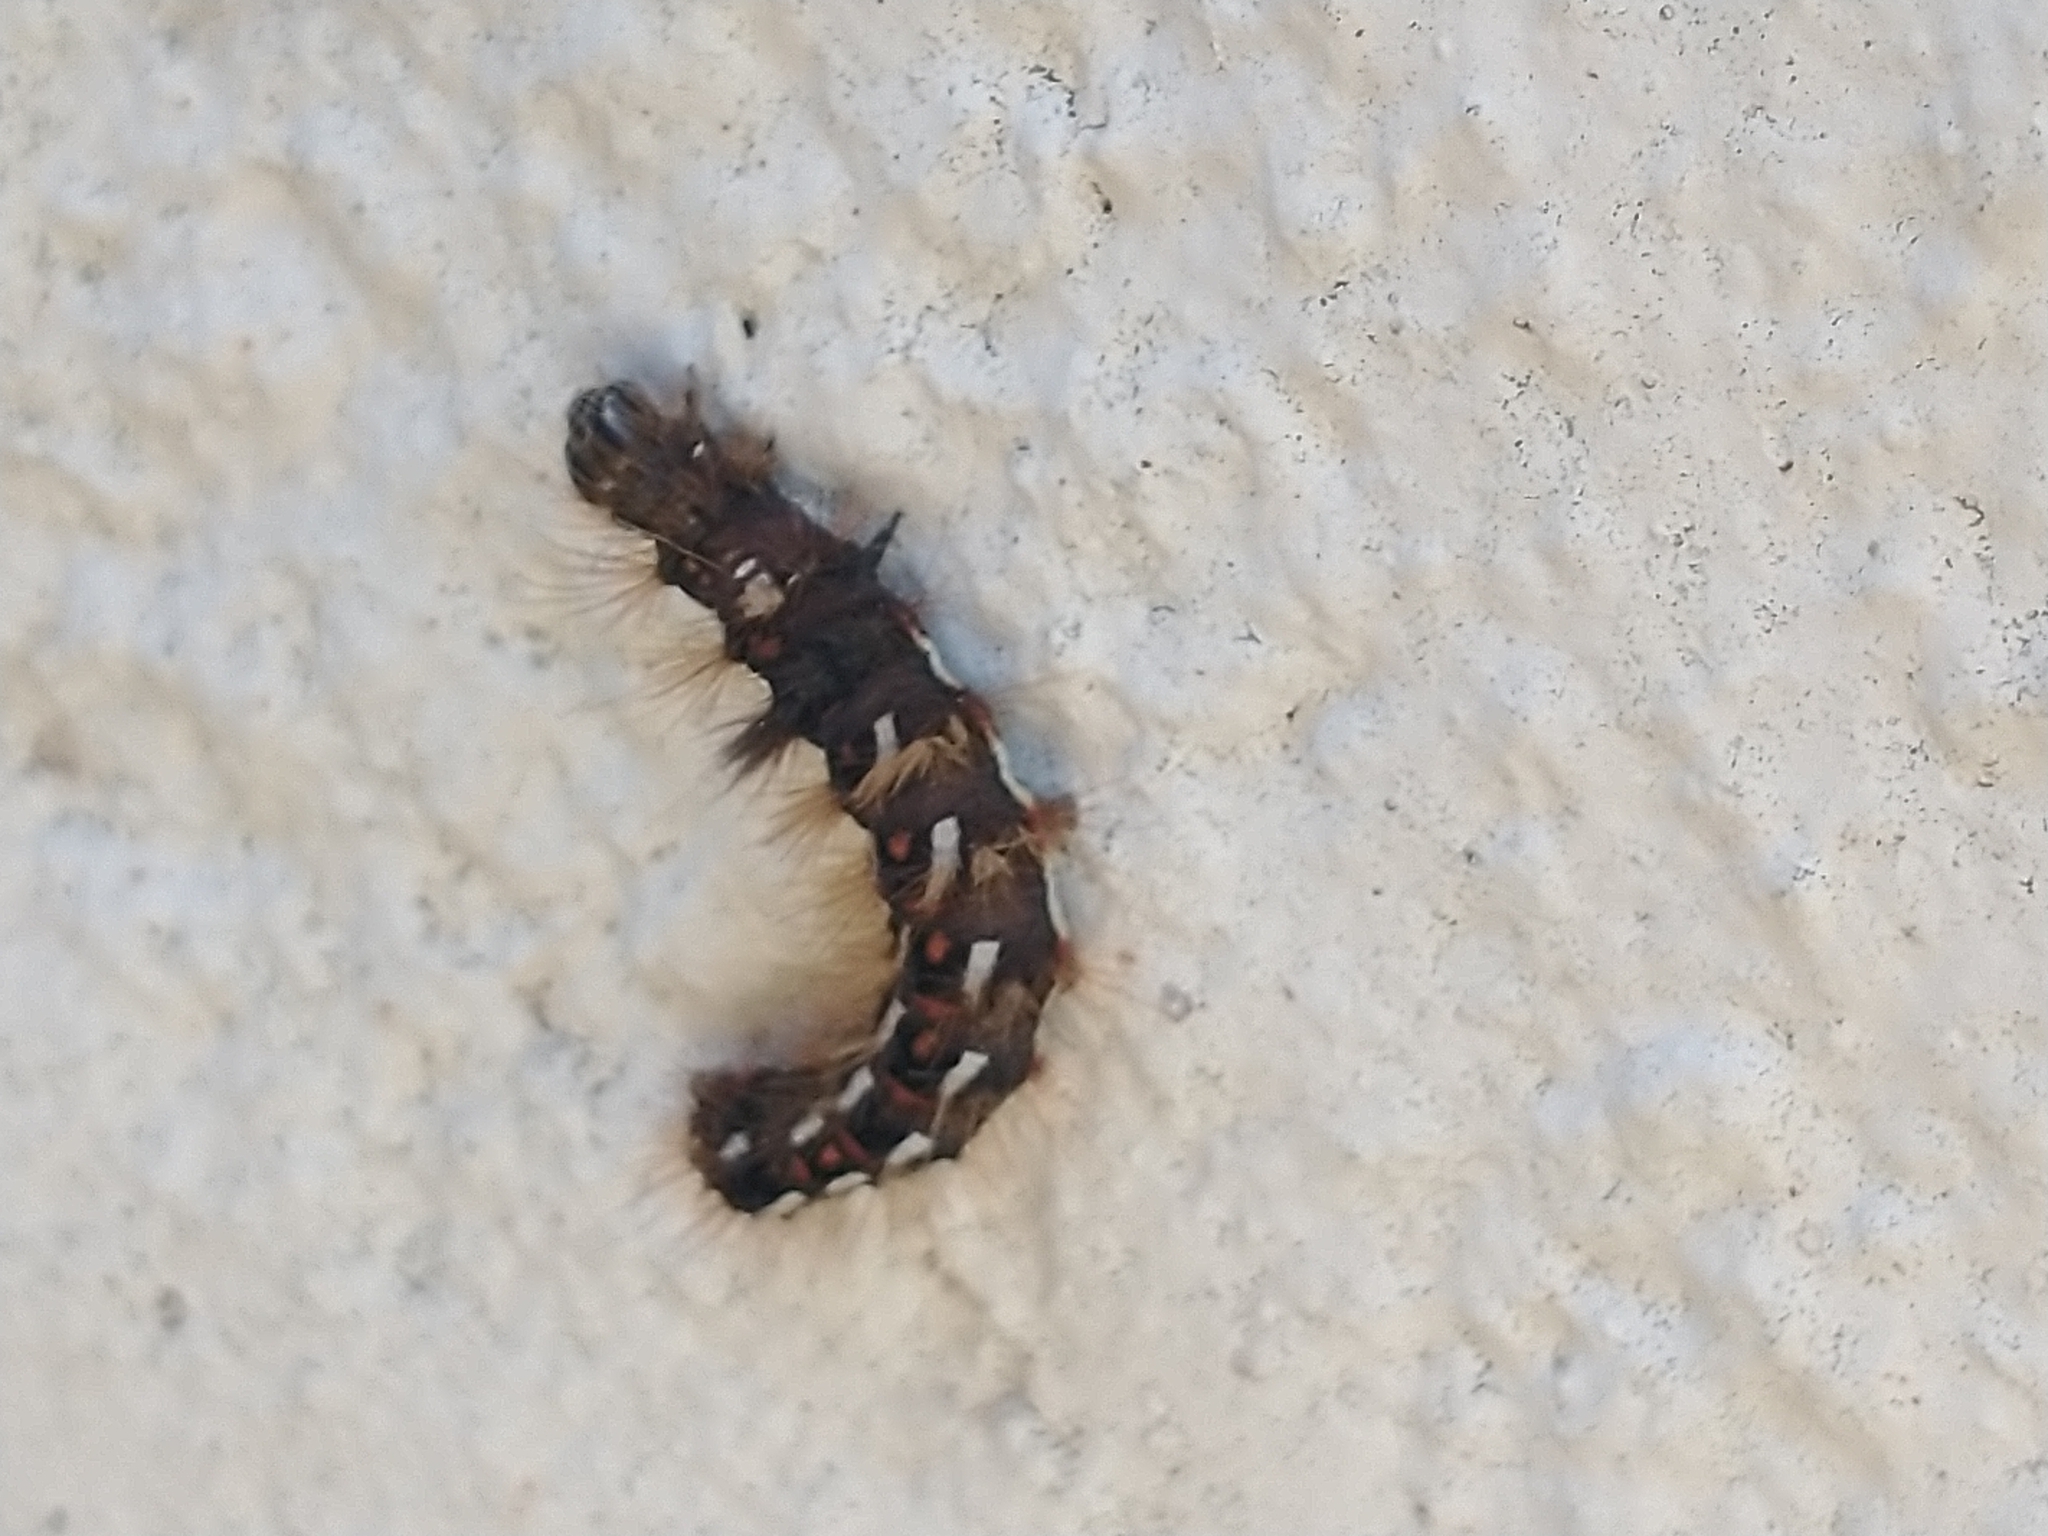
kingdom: Animalia
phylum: Arthropoda
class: Insecta
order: Lepidoptera
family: Noctuidae
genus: Acronicta
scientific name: Acronicta rumicis
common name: Knot grass
